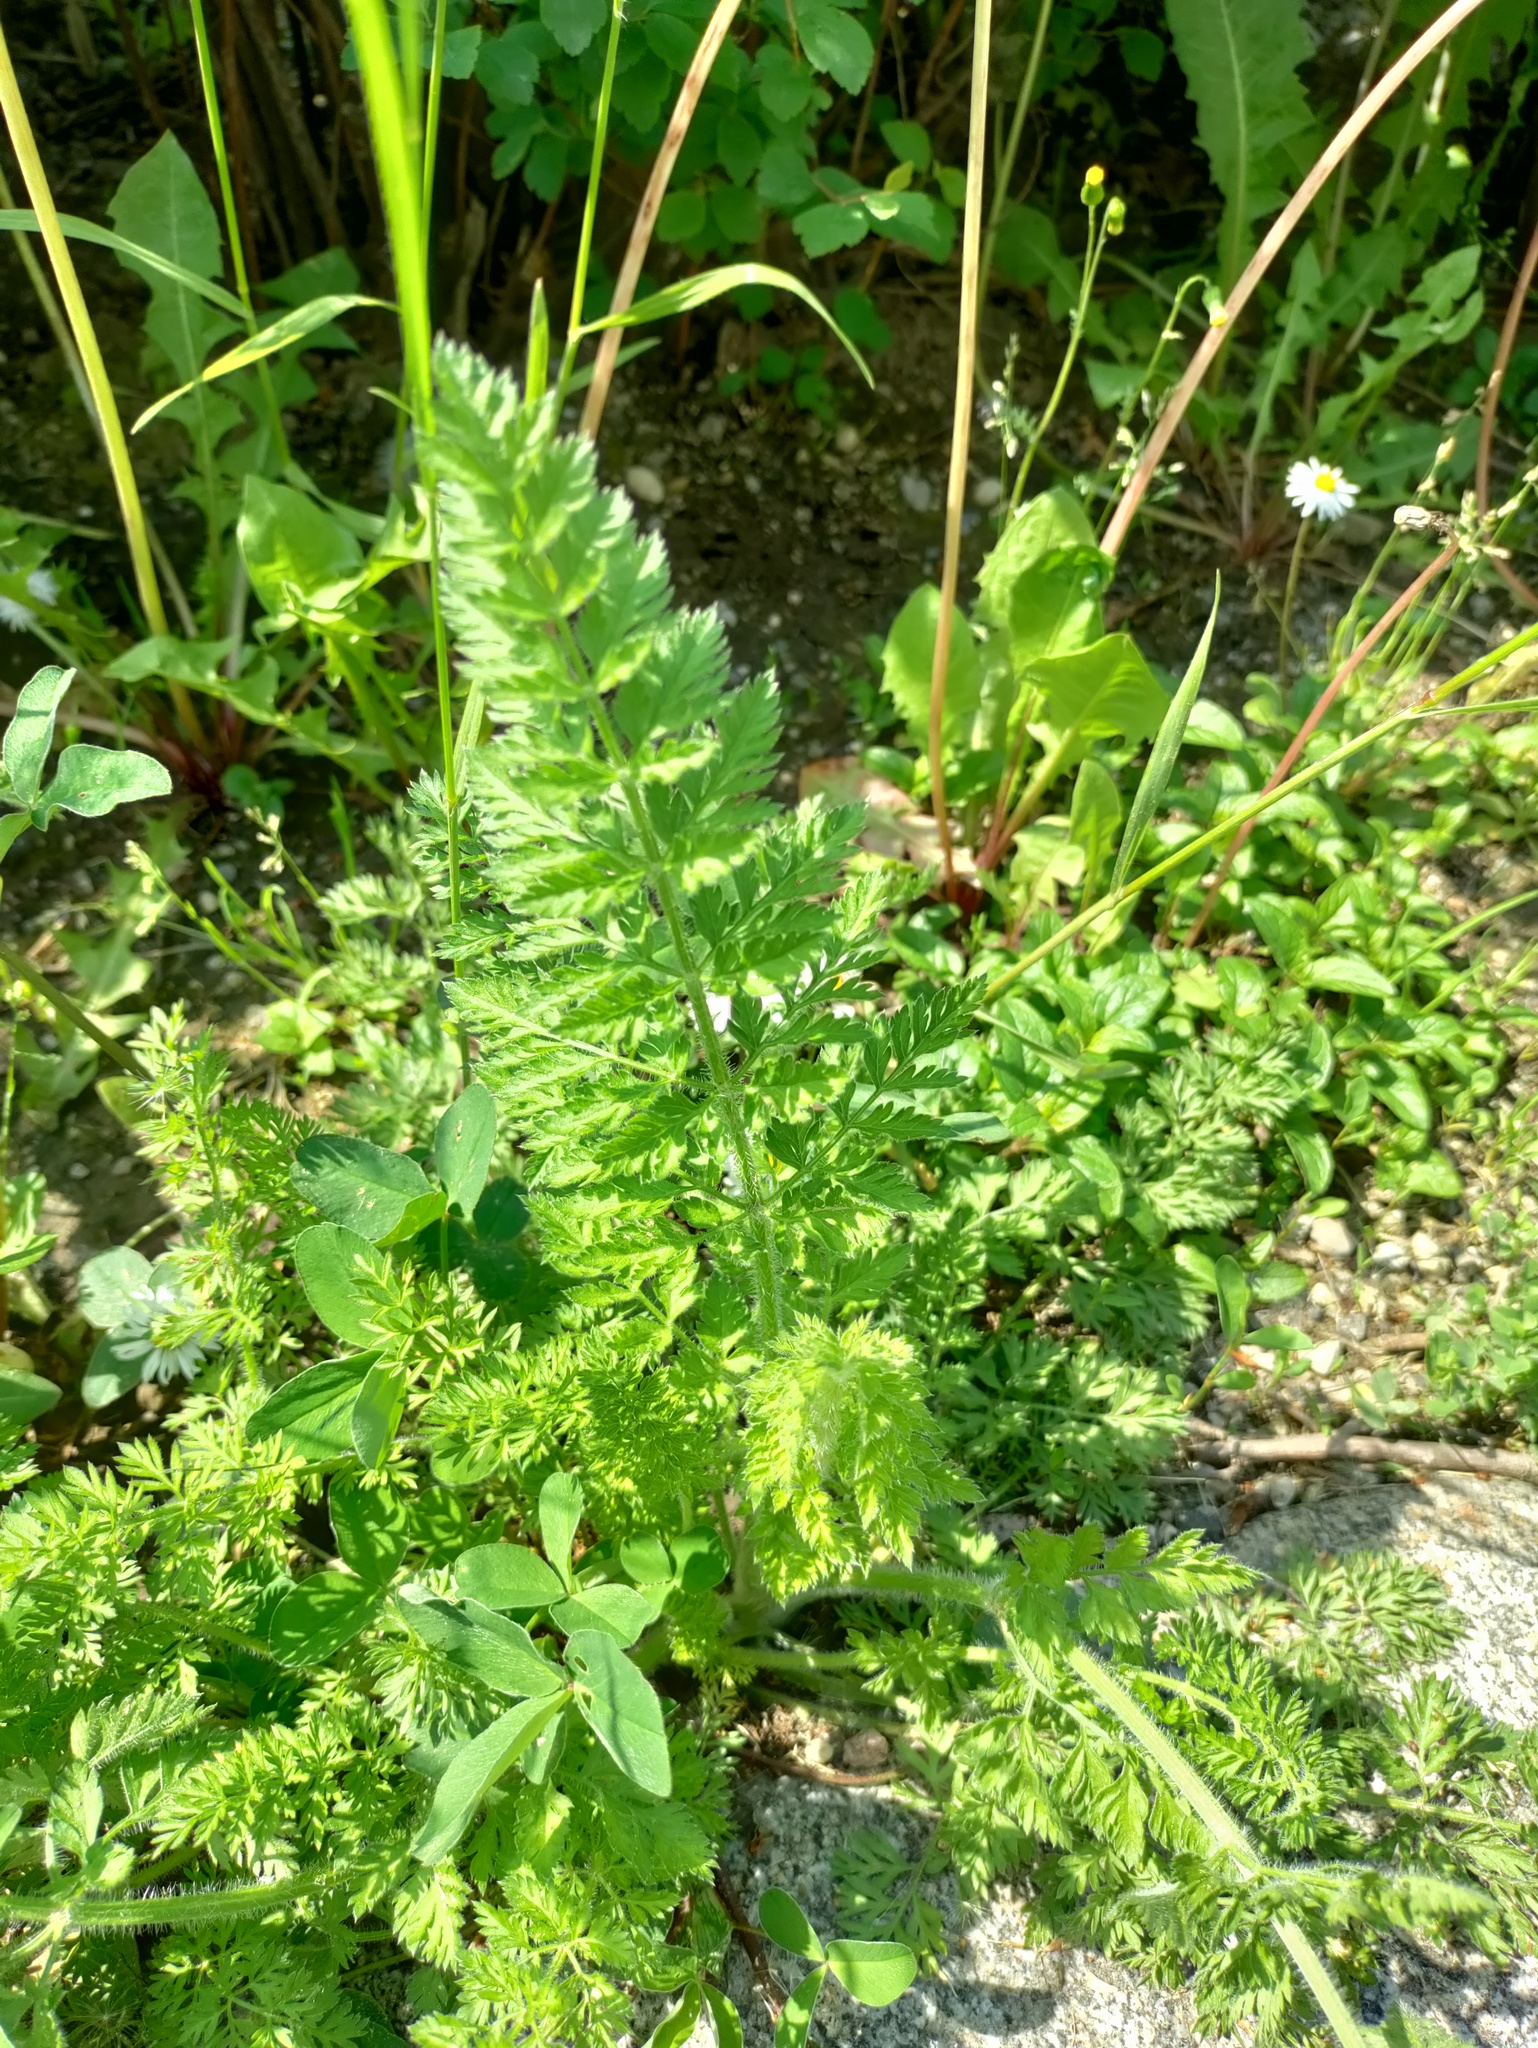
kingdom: Plantae
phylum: Tracheophyta
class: Magnoliopsida
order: Apiales
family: Apiaceae
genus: Daucus
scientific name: Daucus carota
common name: Wild carrot
